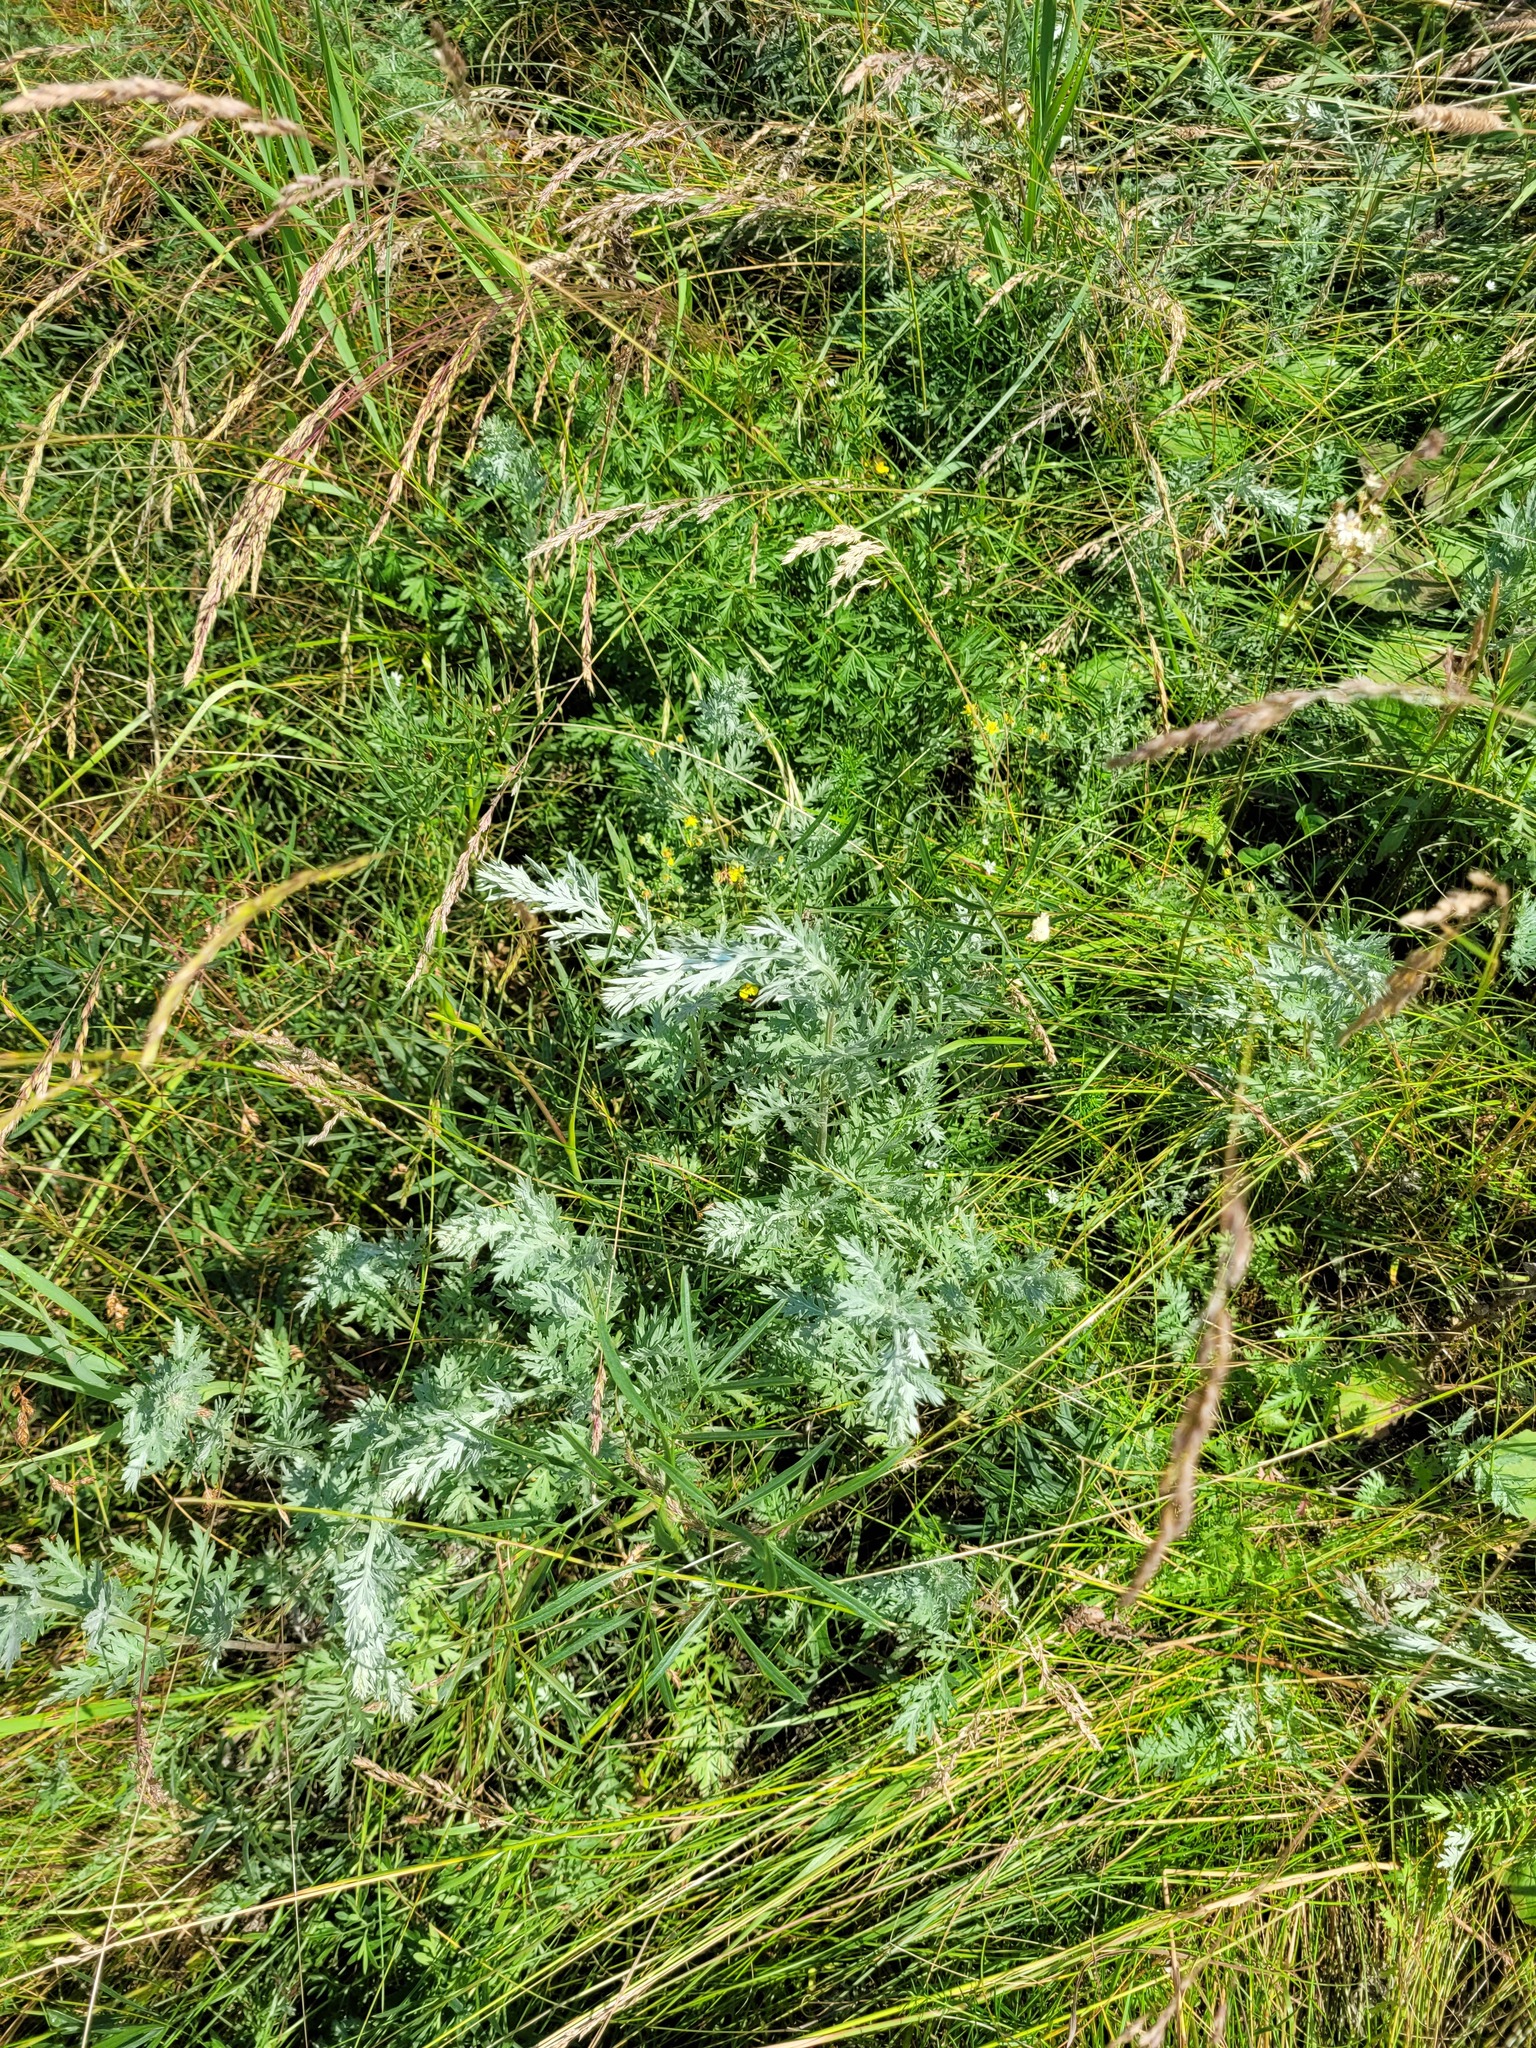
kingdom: Plantae
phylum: Tracheophyta
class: Magnoliopsida
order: Asterales
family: Asteraceae
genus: Artemisia
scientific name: Artemisia armeniaca
